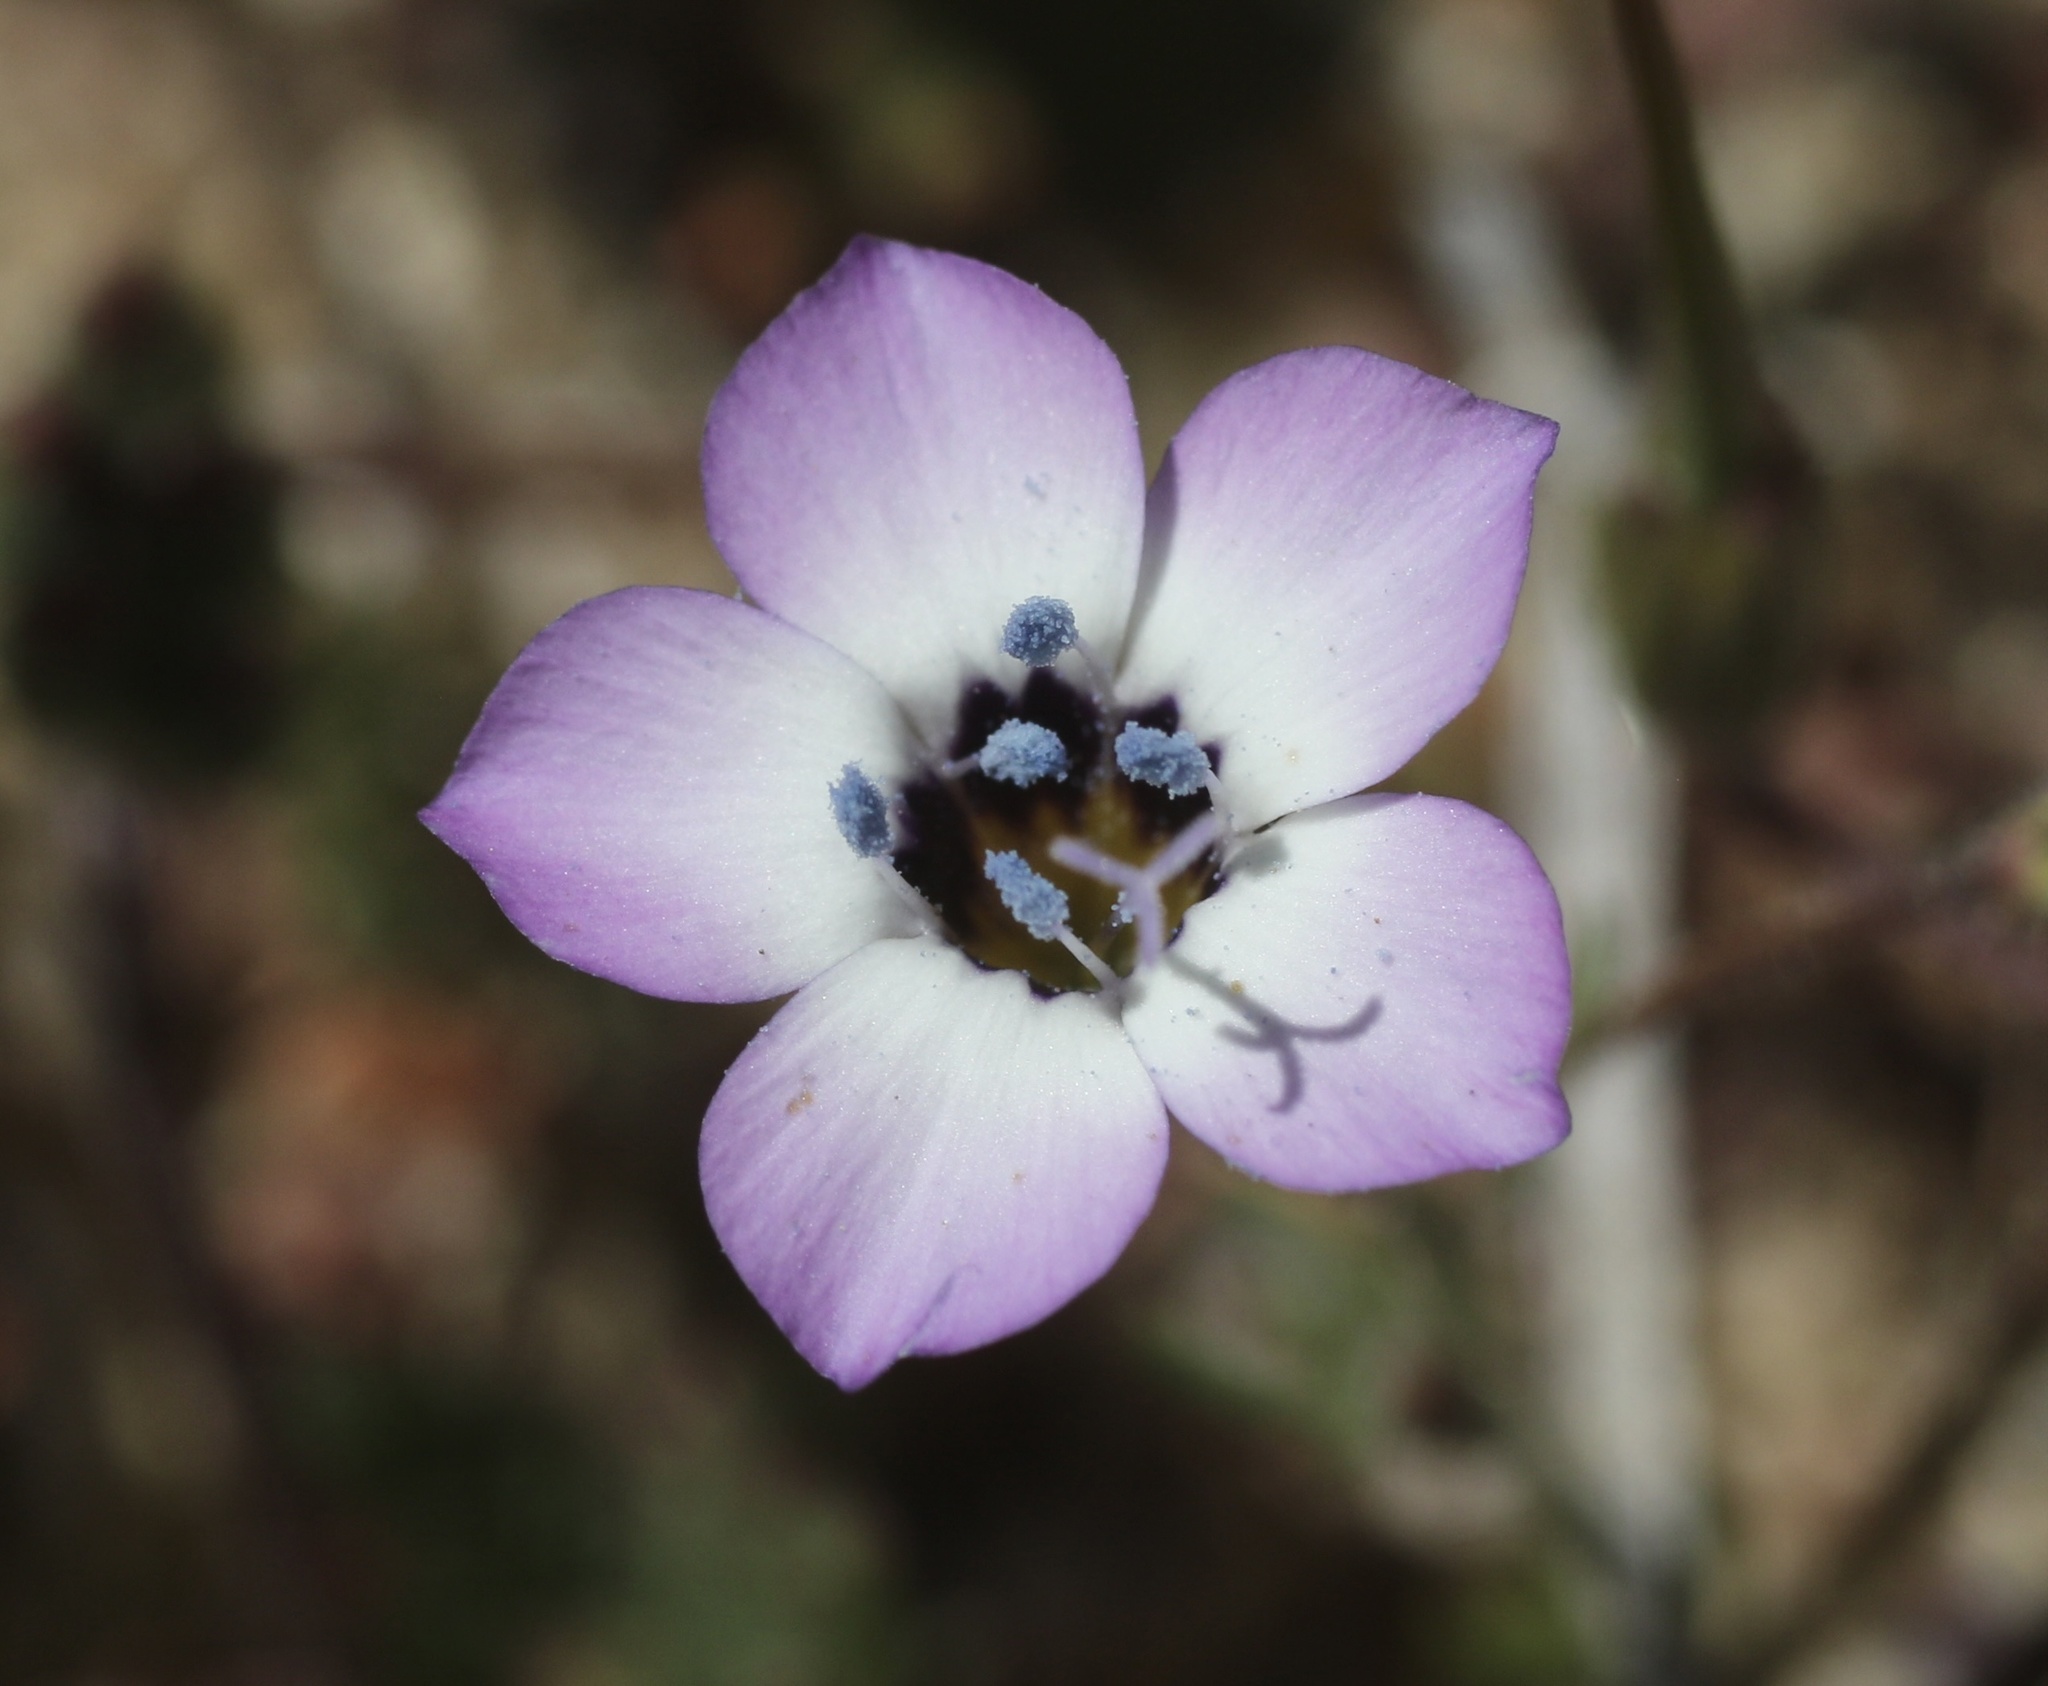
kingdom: Plantae
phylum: Tracheophyta
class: Magnoliopsida
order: Ericales
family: Polemoniaceae
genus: Gilia
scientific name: Gilia tricolor
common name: Bird's-eyes
